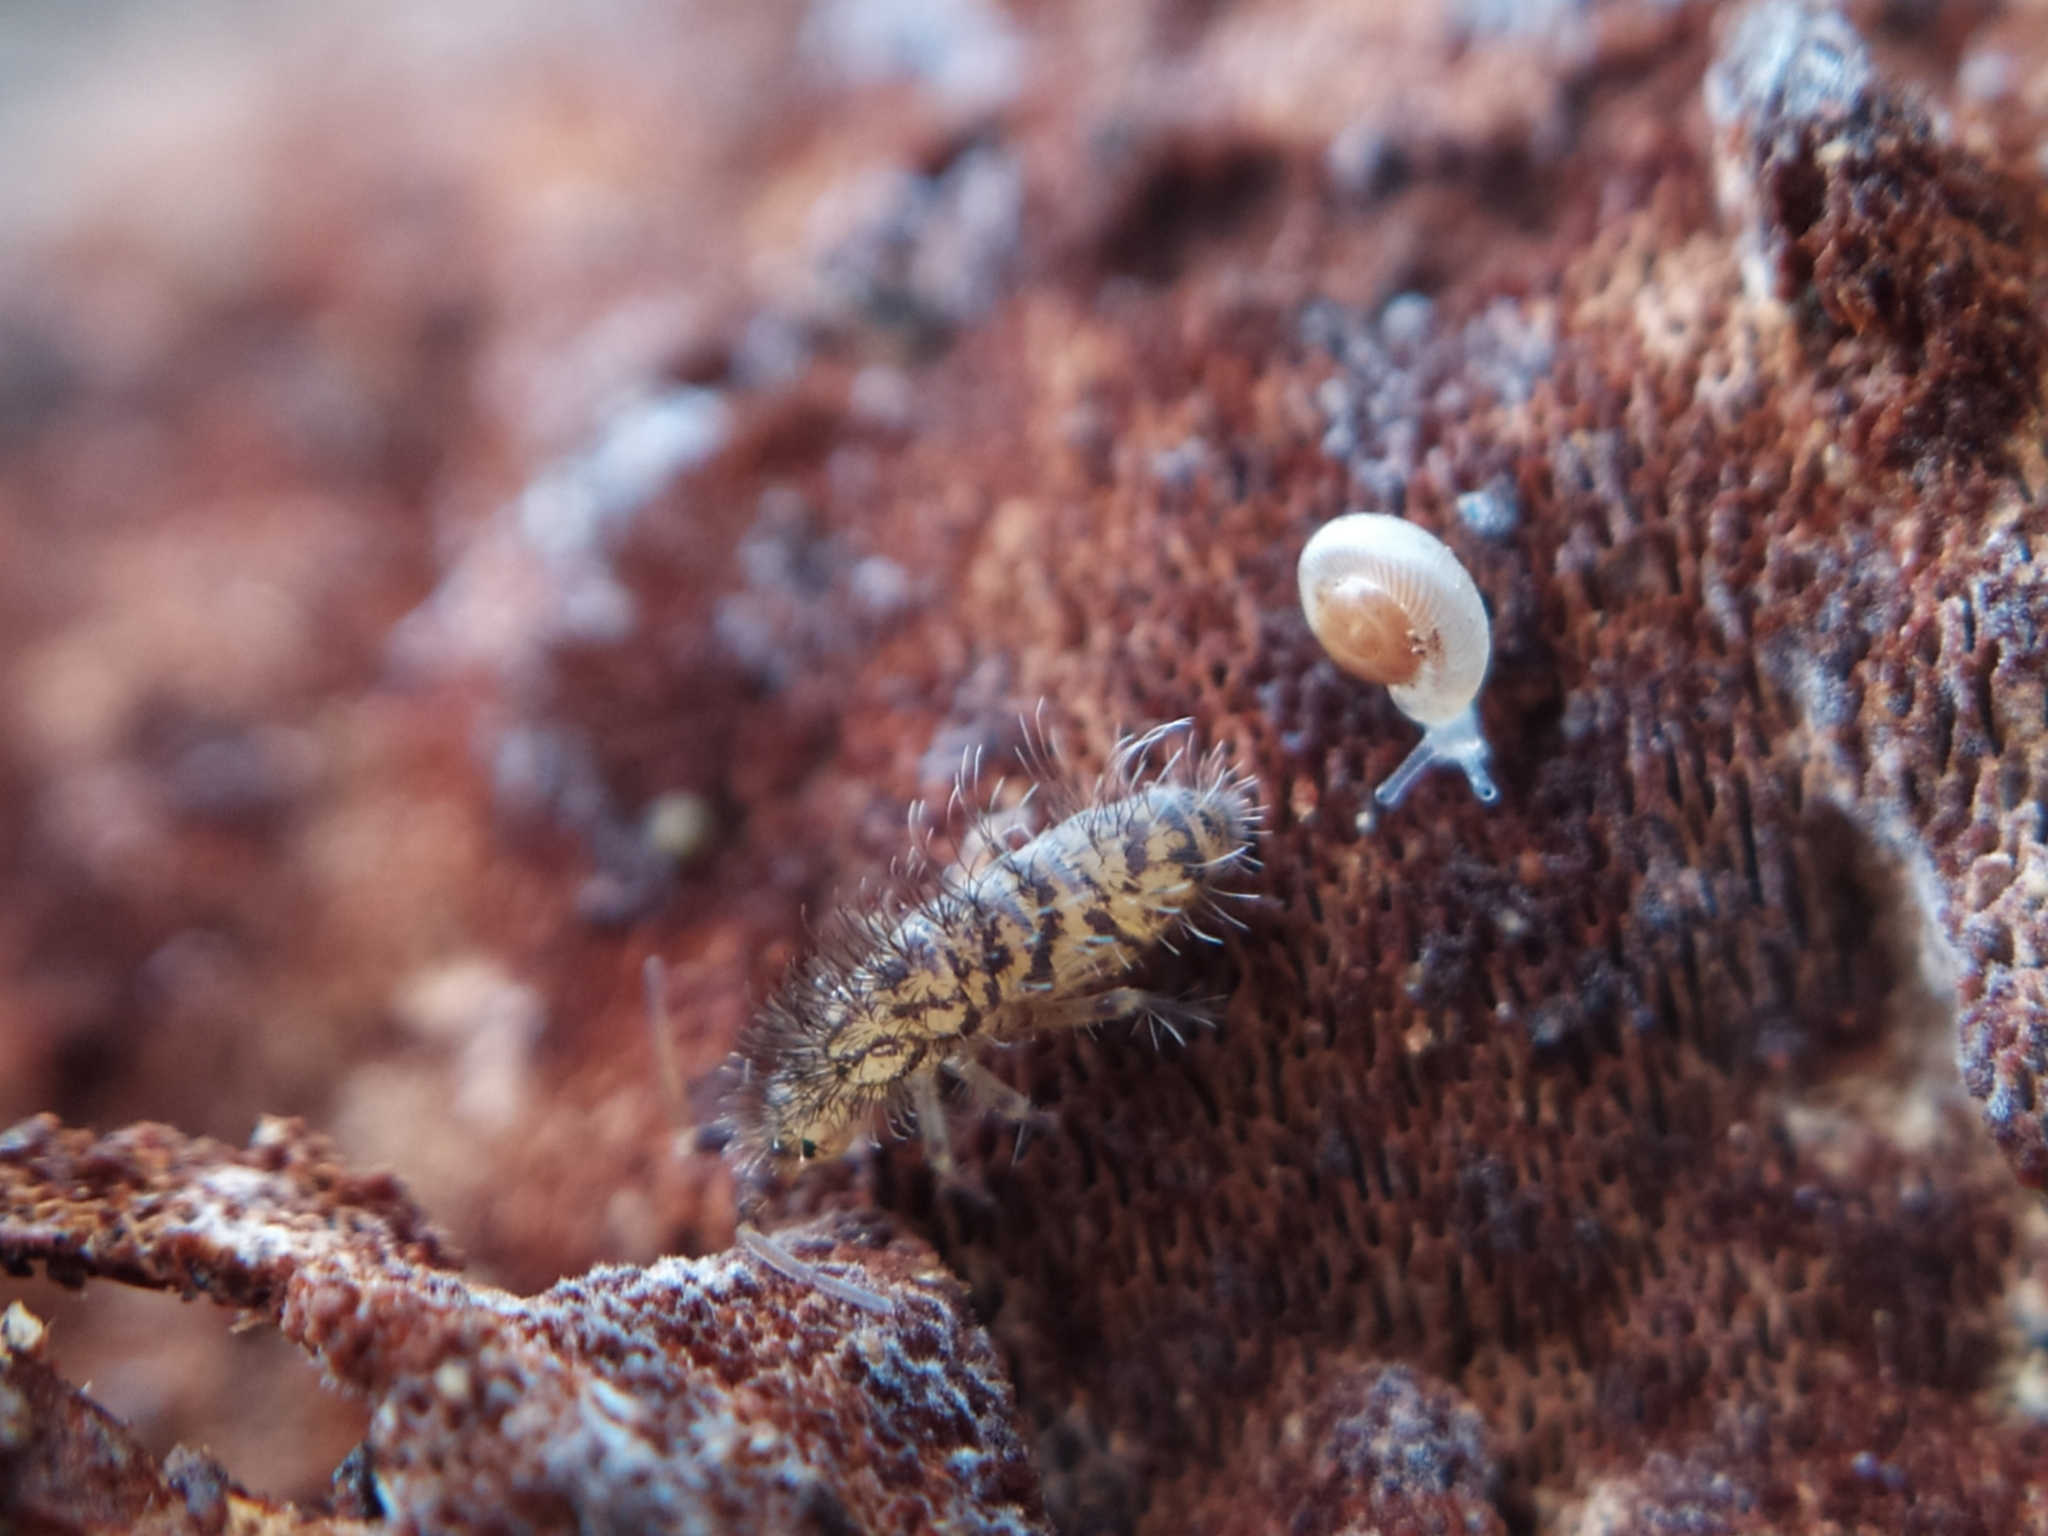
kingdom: Animalia
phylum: Arthropoda
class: Collembola
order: Entomobryomorpha
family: Orchesellidae
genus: Orchesella
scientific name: Orchesella villosa
